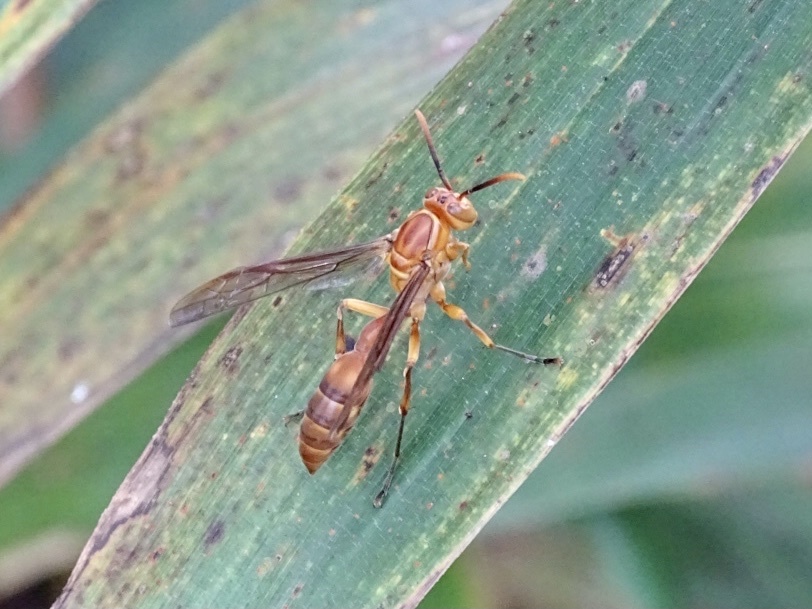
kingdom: Animalia
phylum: Arthropoda
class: Insecta
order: Hymenoptera
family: Vespidae
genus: Parapolybia
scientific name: Parapolybia indica
